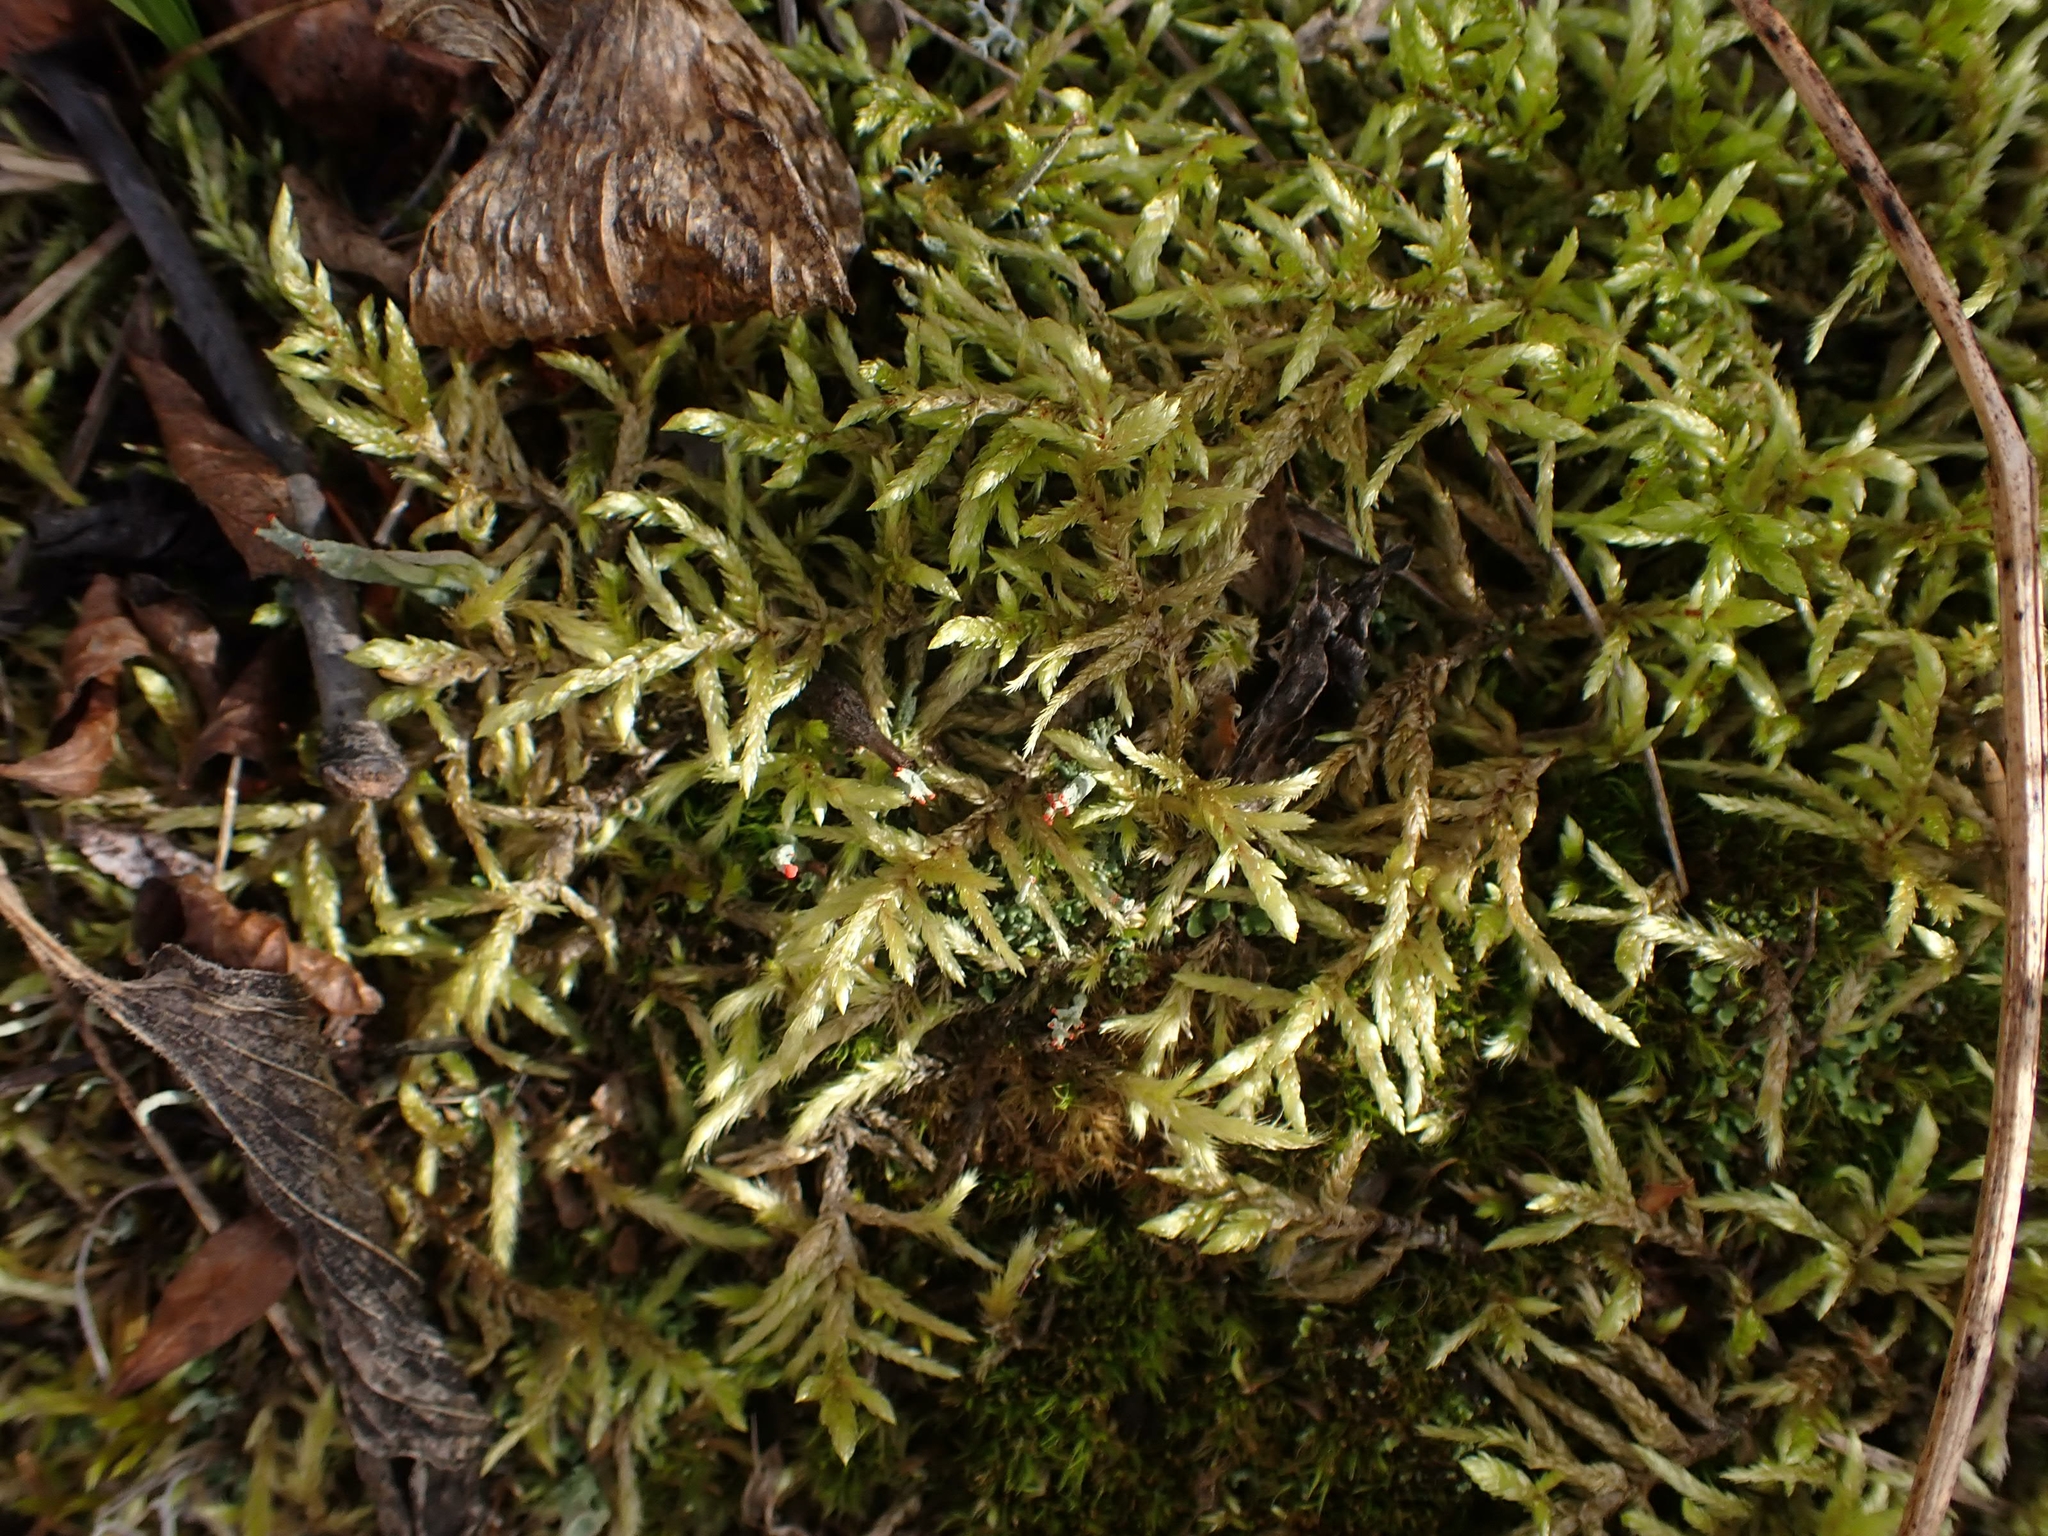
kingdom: Plantae
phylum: Bryophyta
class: Bryopsida
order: Hypnales
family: Hylocomiaceae
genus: Pleurozium
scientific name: Pleurozium schreberi
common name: Red-stemmed feather moss
